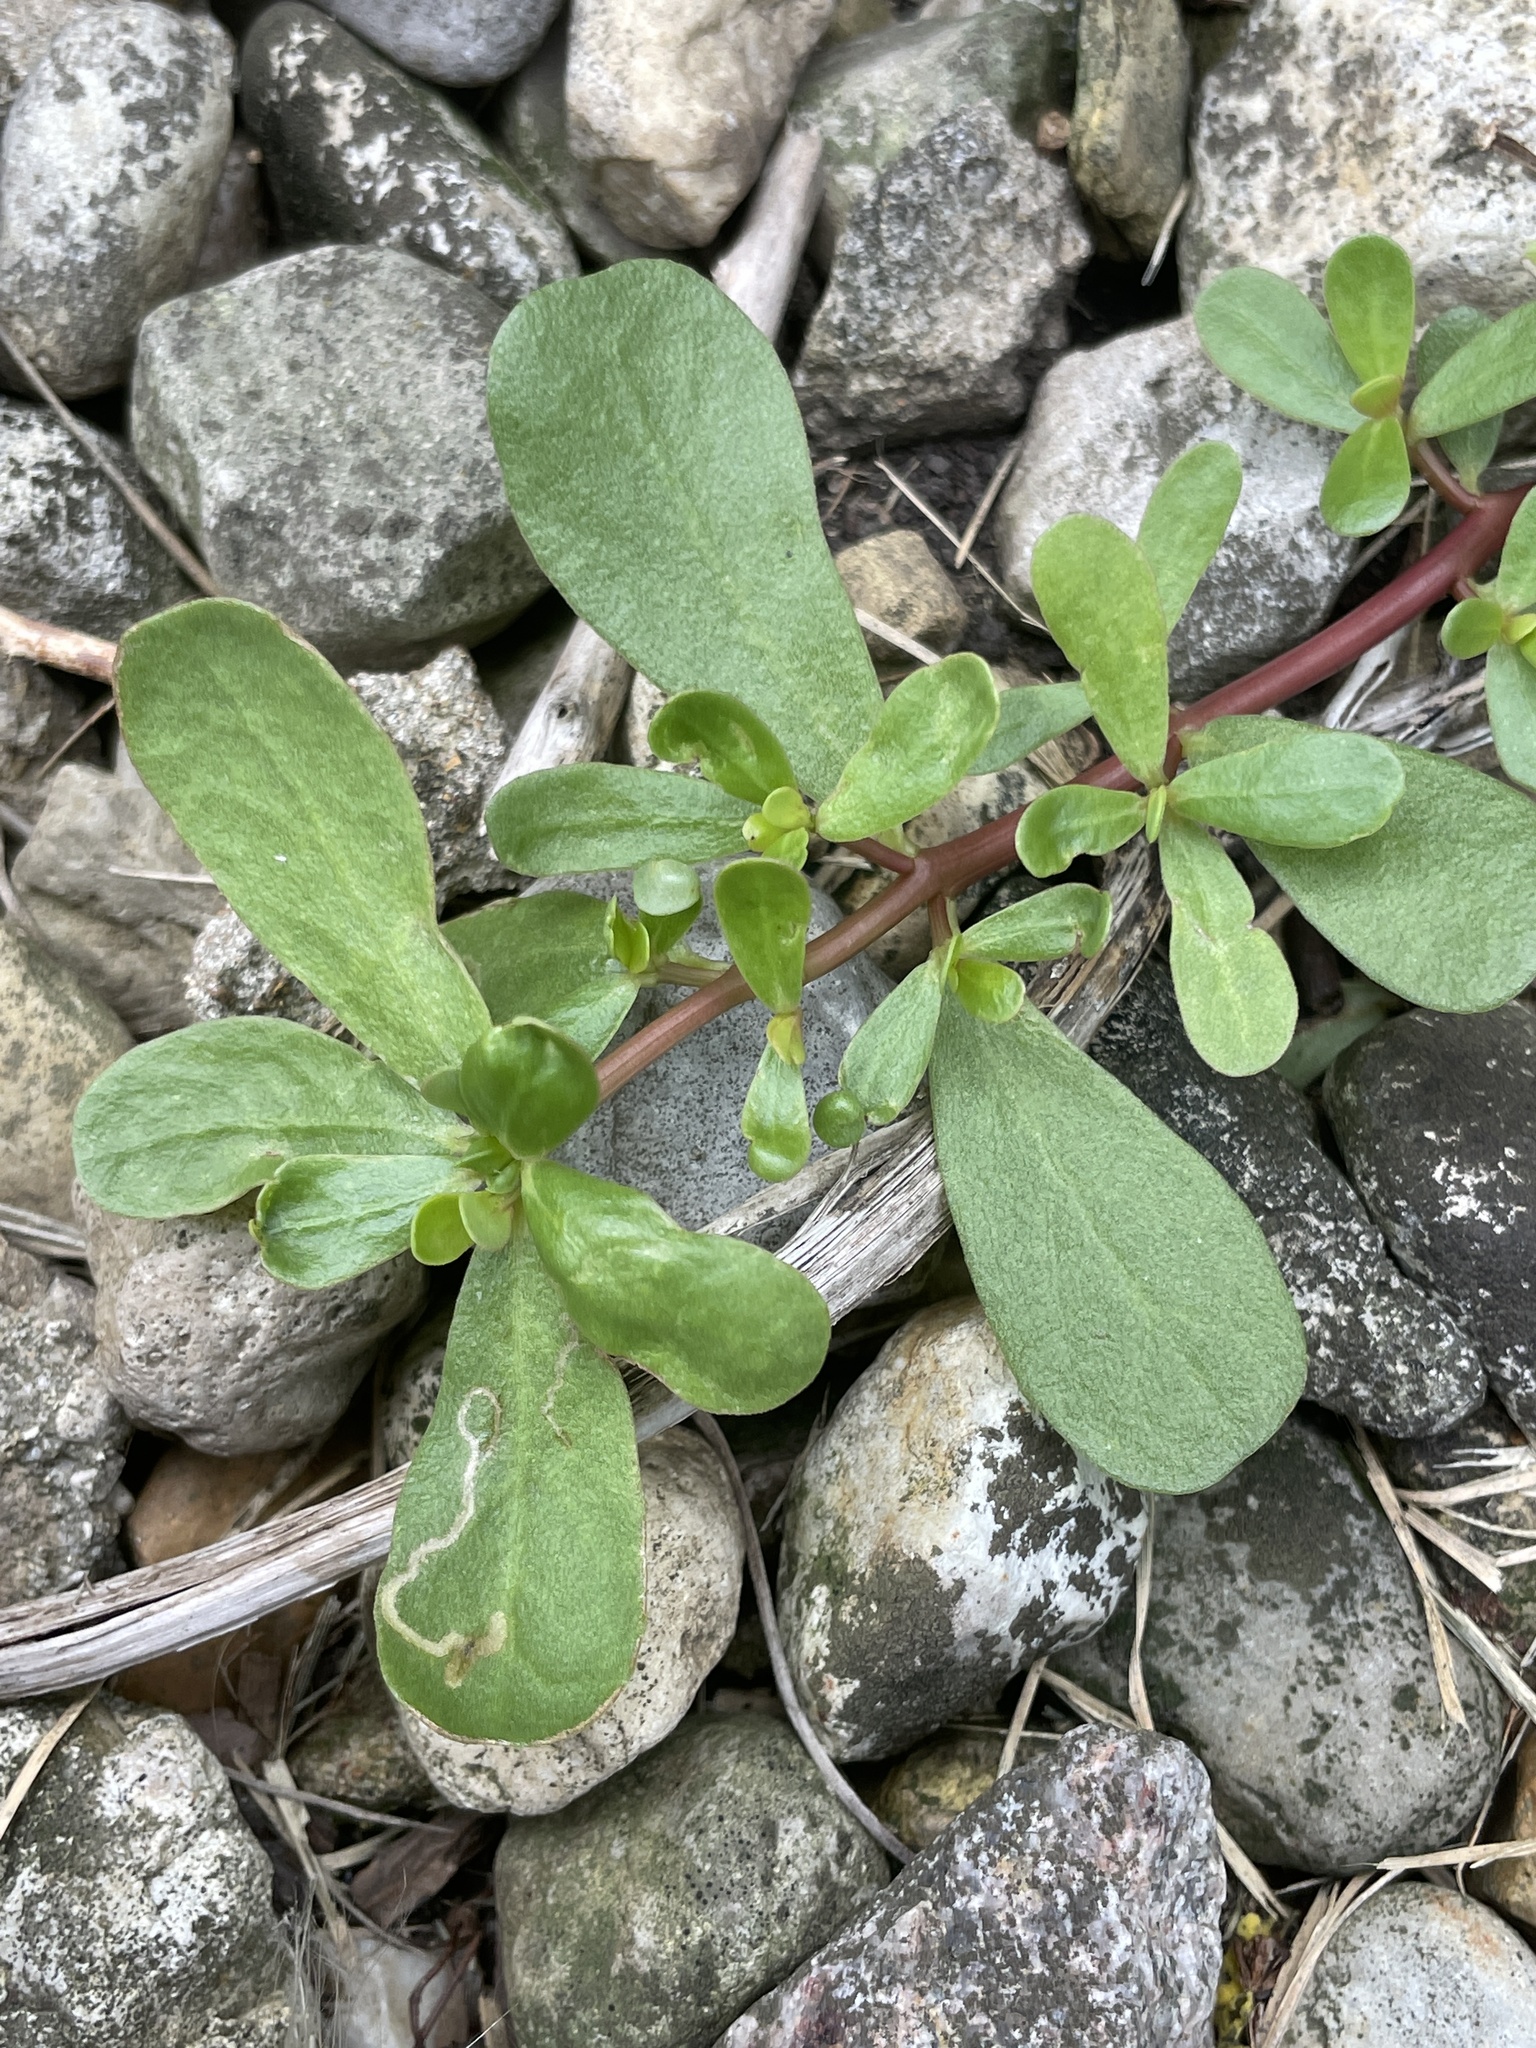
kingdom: Plantae
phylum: Tracheophyta
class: Magnoliopsida
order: Caryophyllales
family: Portulacaceae
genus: Portulaca
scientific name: Portulaca oleracea
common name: Common purslane
